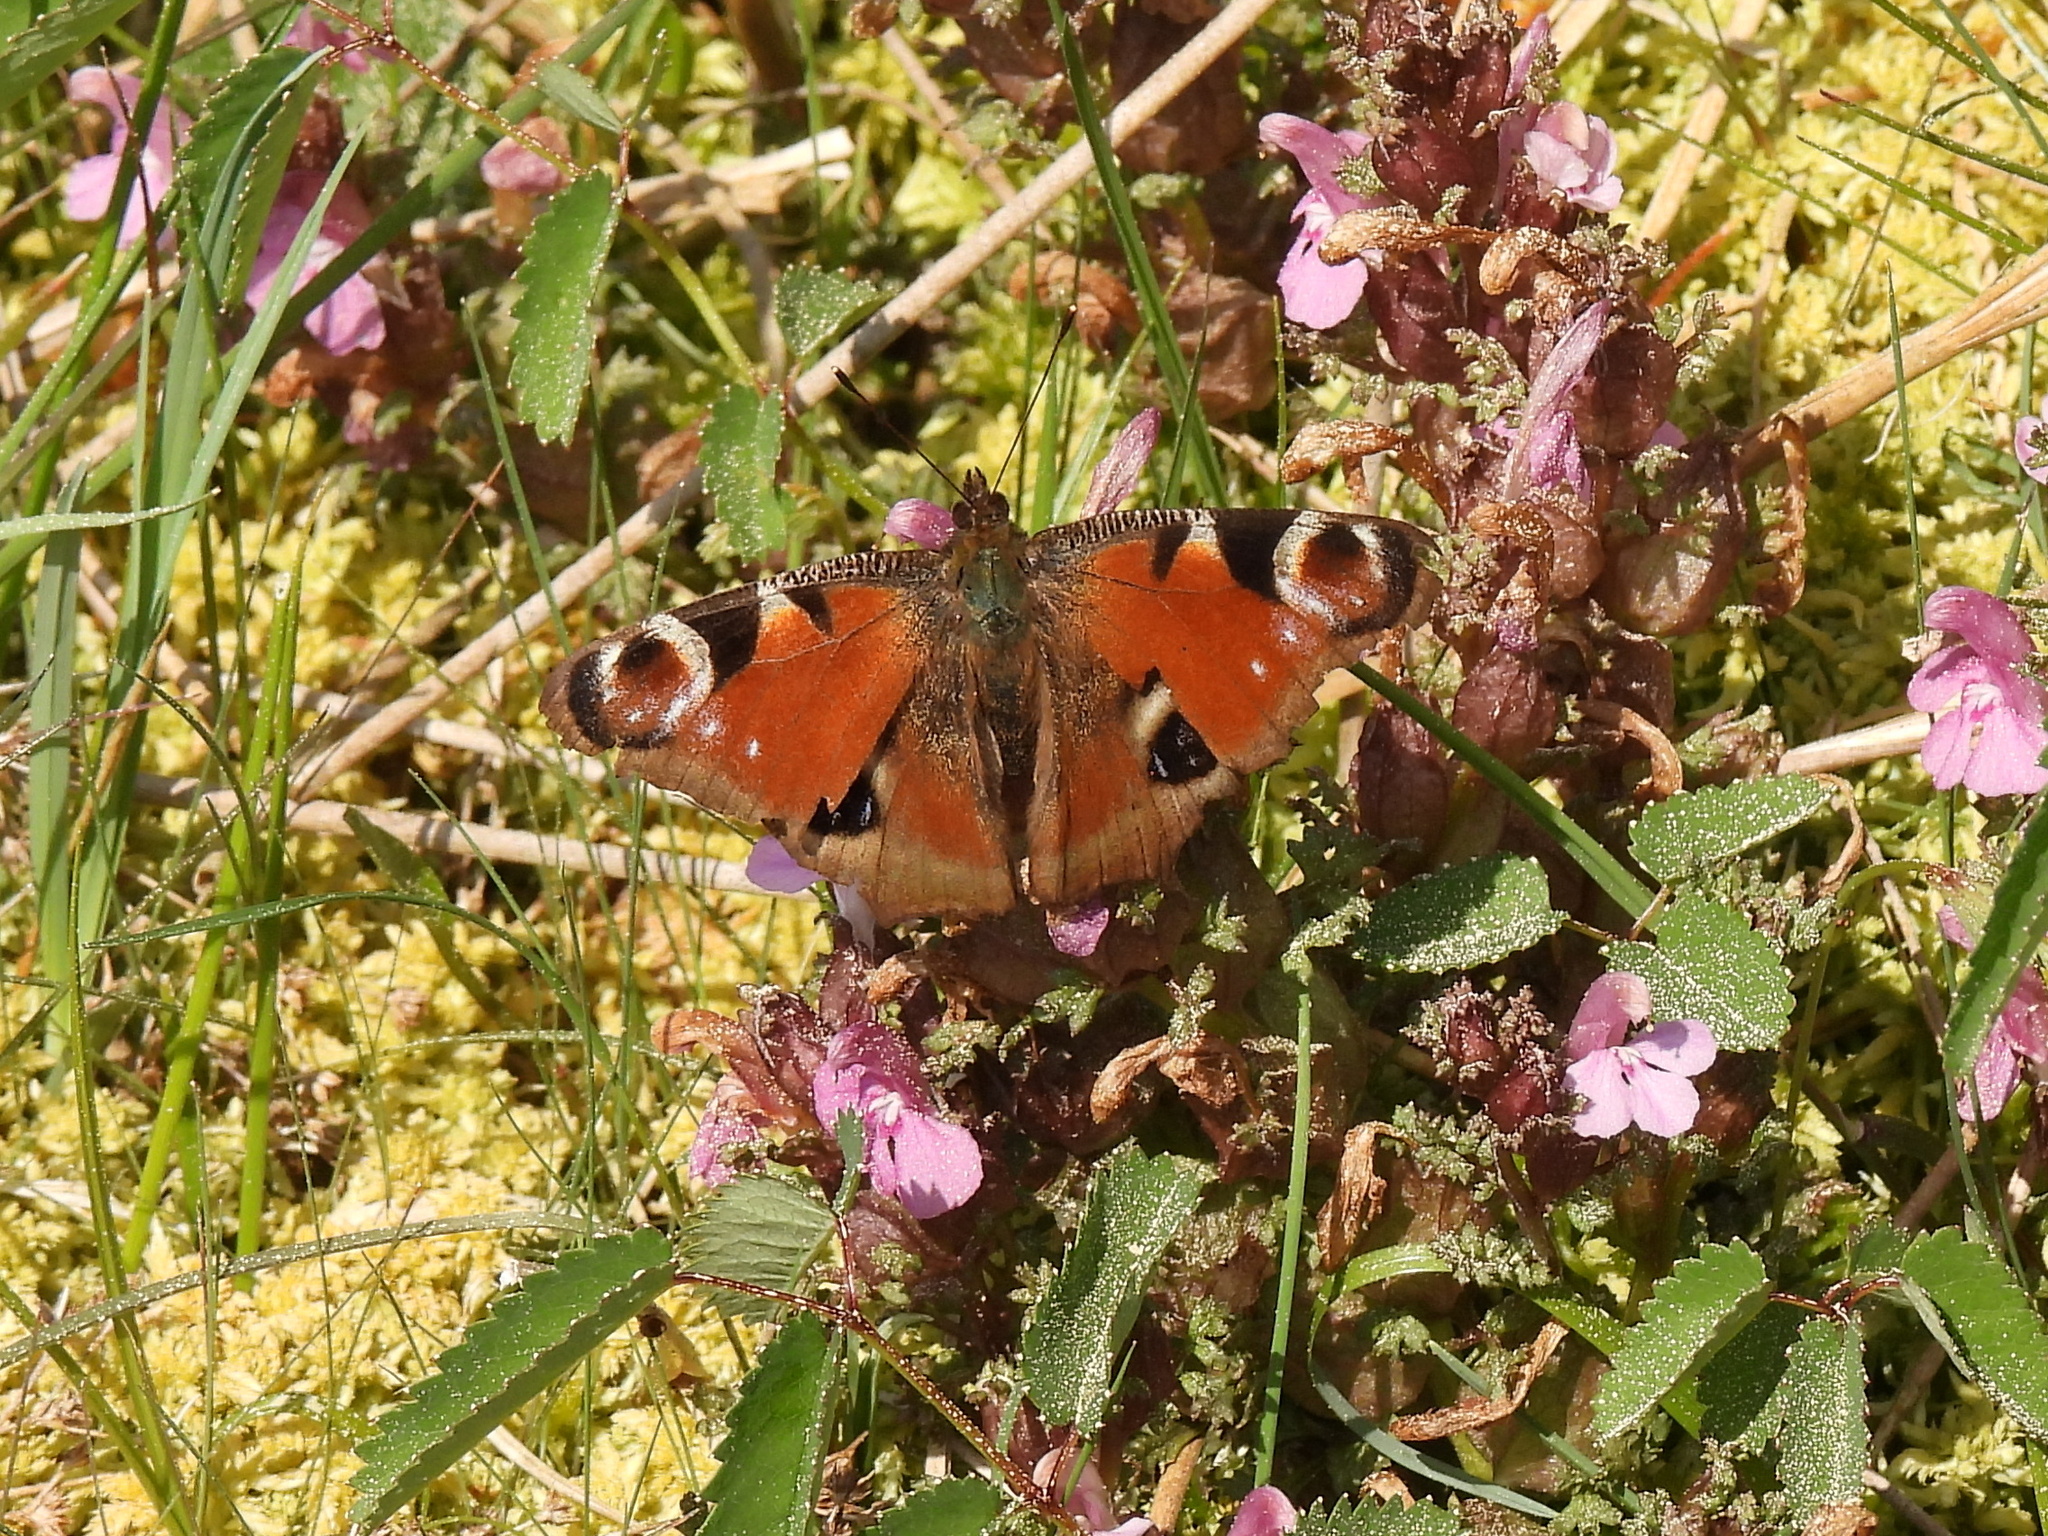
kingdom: Animalia
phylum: Arthropoda
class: Insecta
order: Lepidoptera
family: Nymphalidae
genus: Aglais
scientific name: Aglais io
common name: Peacock
